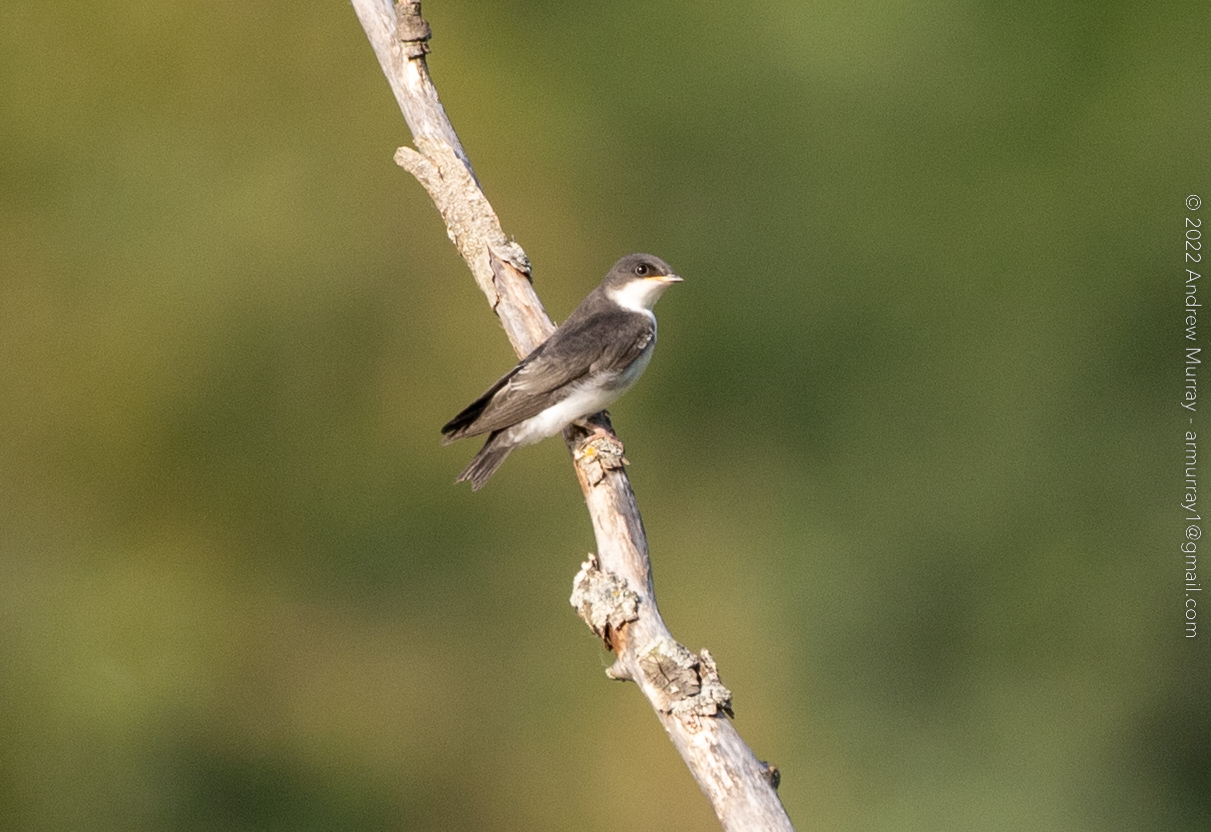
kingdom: Animalia
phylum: Chordata
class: Aves
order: Passeriformes
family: Hirundinidae
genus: Tachycineta
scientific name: Tachycineta bicolor
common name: Tree swallow
